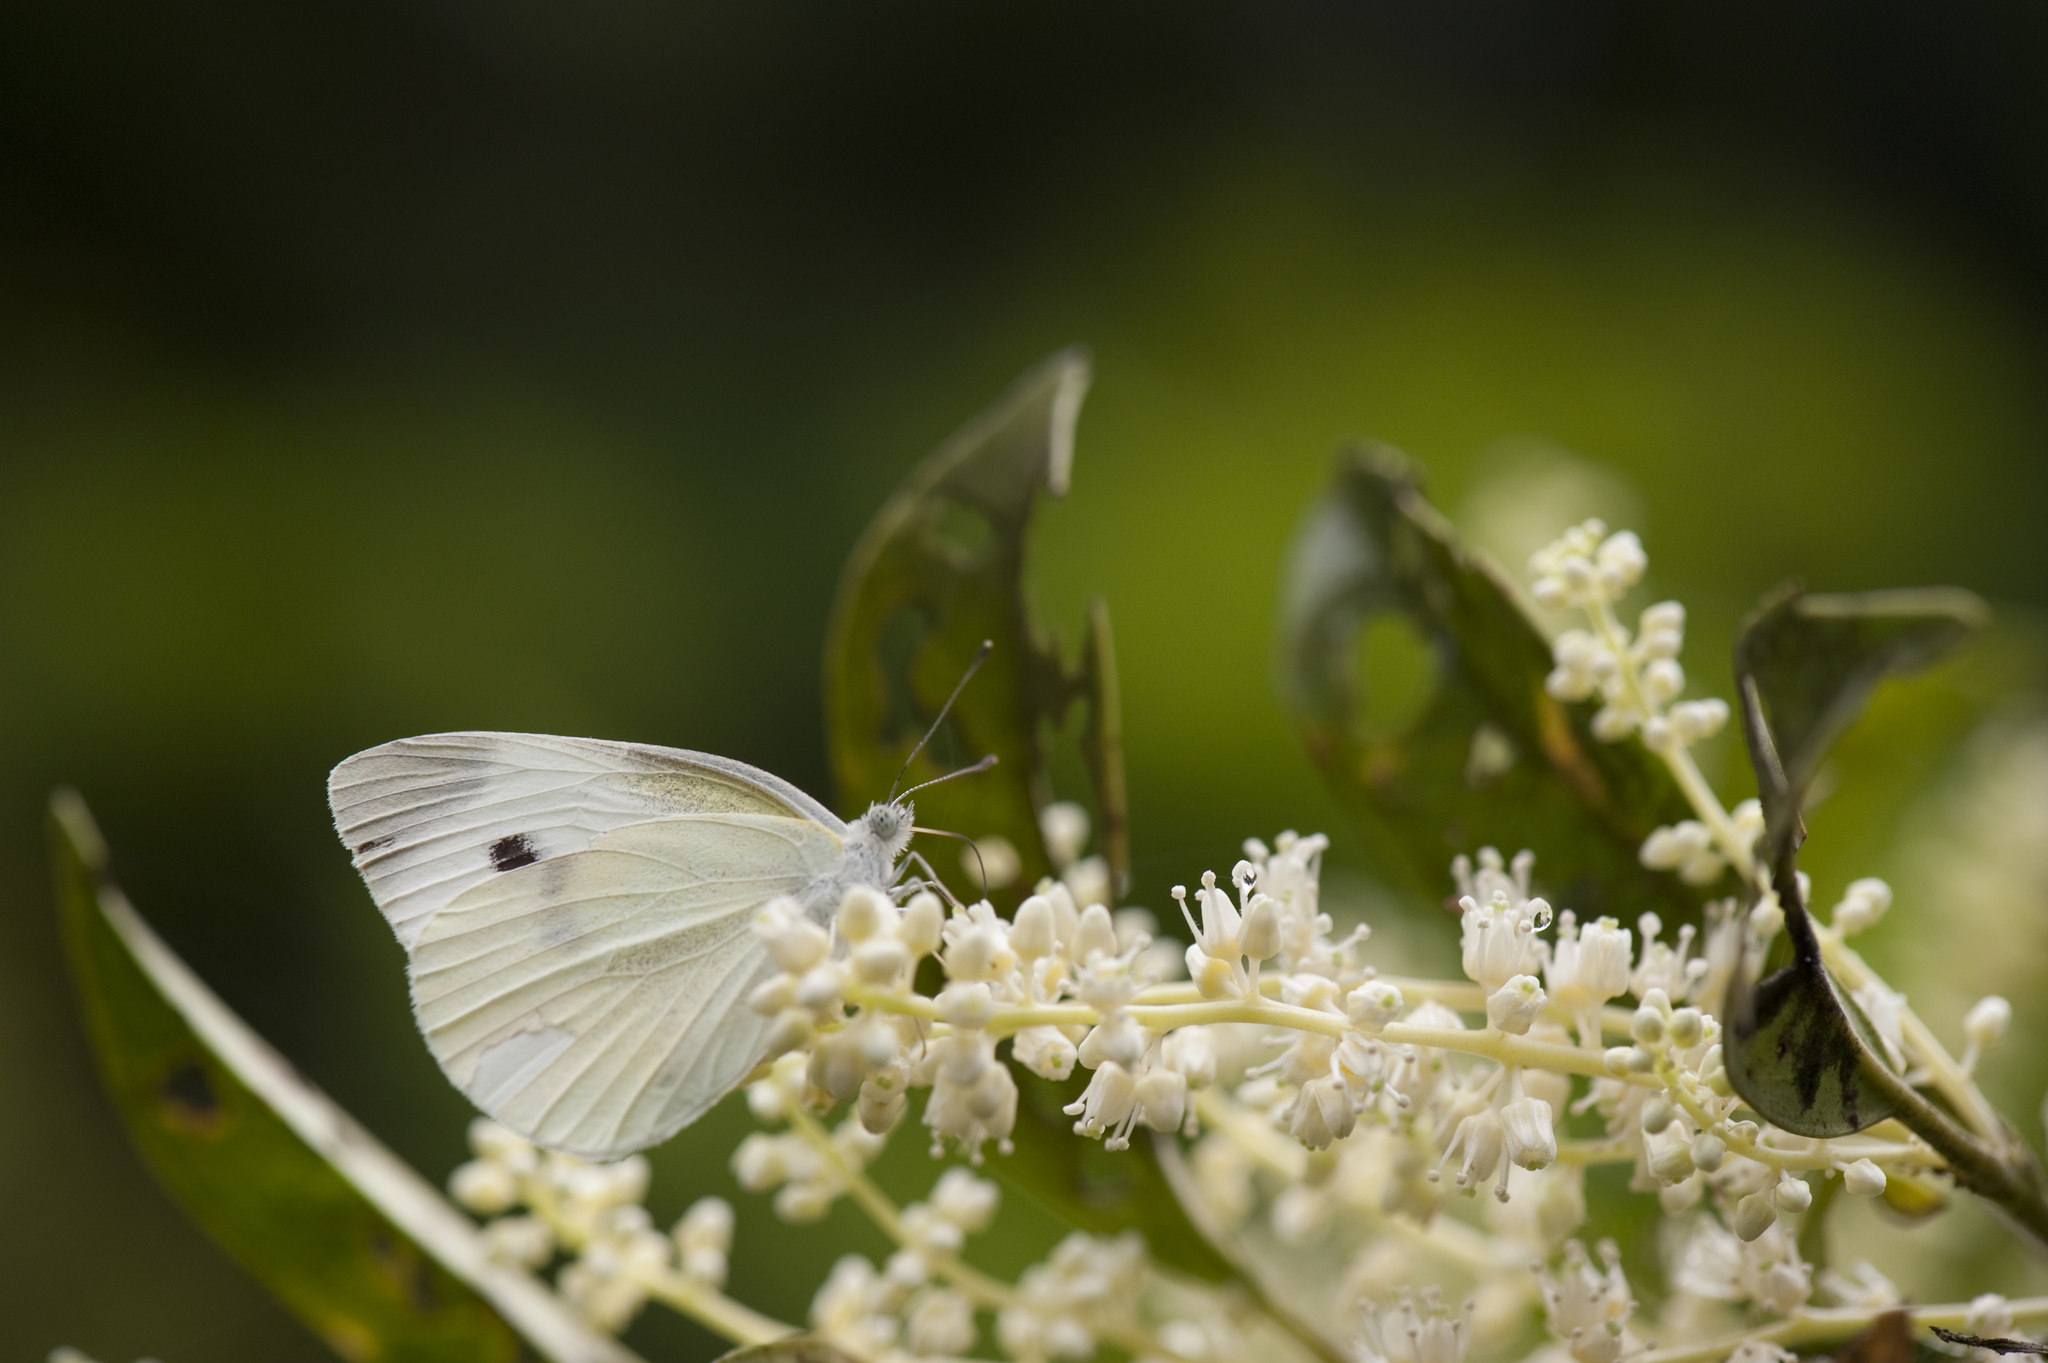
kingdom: Animalia
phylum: Arthropoda
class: Insecta
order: Lepidoptera
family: Pieridae
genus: Pieris
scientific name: Pieris rapae
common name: Small white
